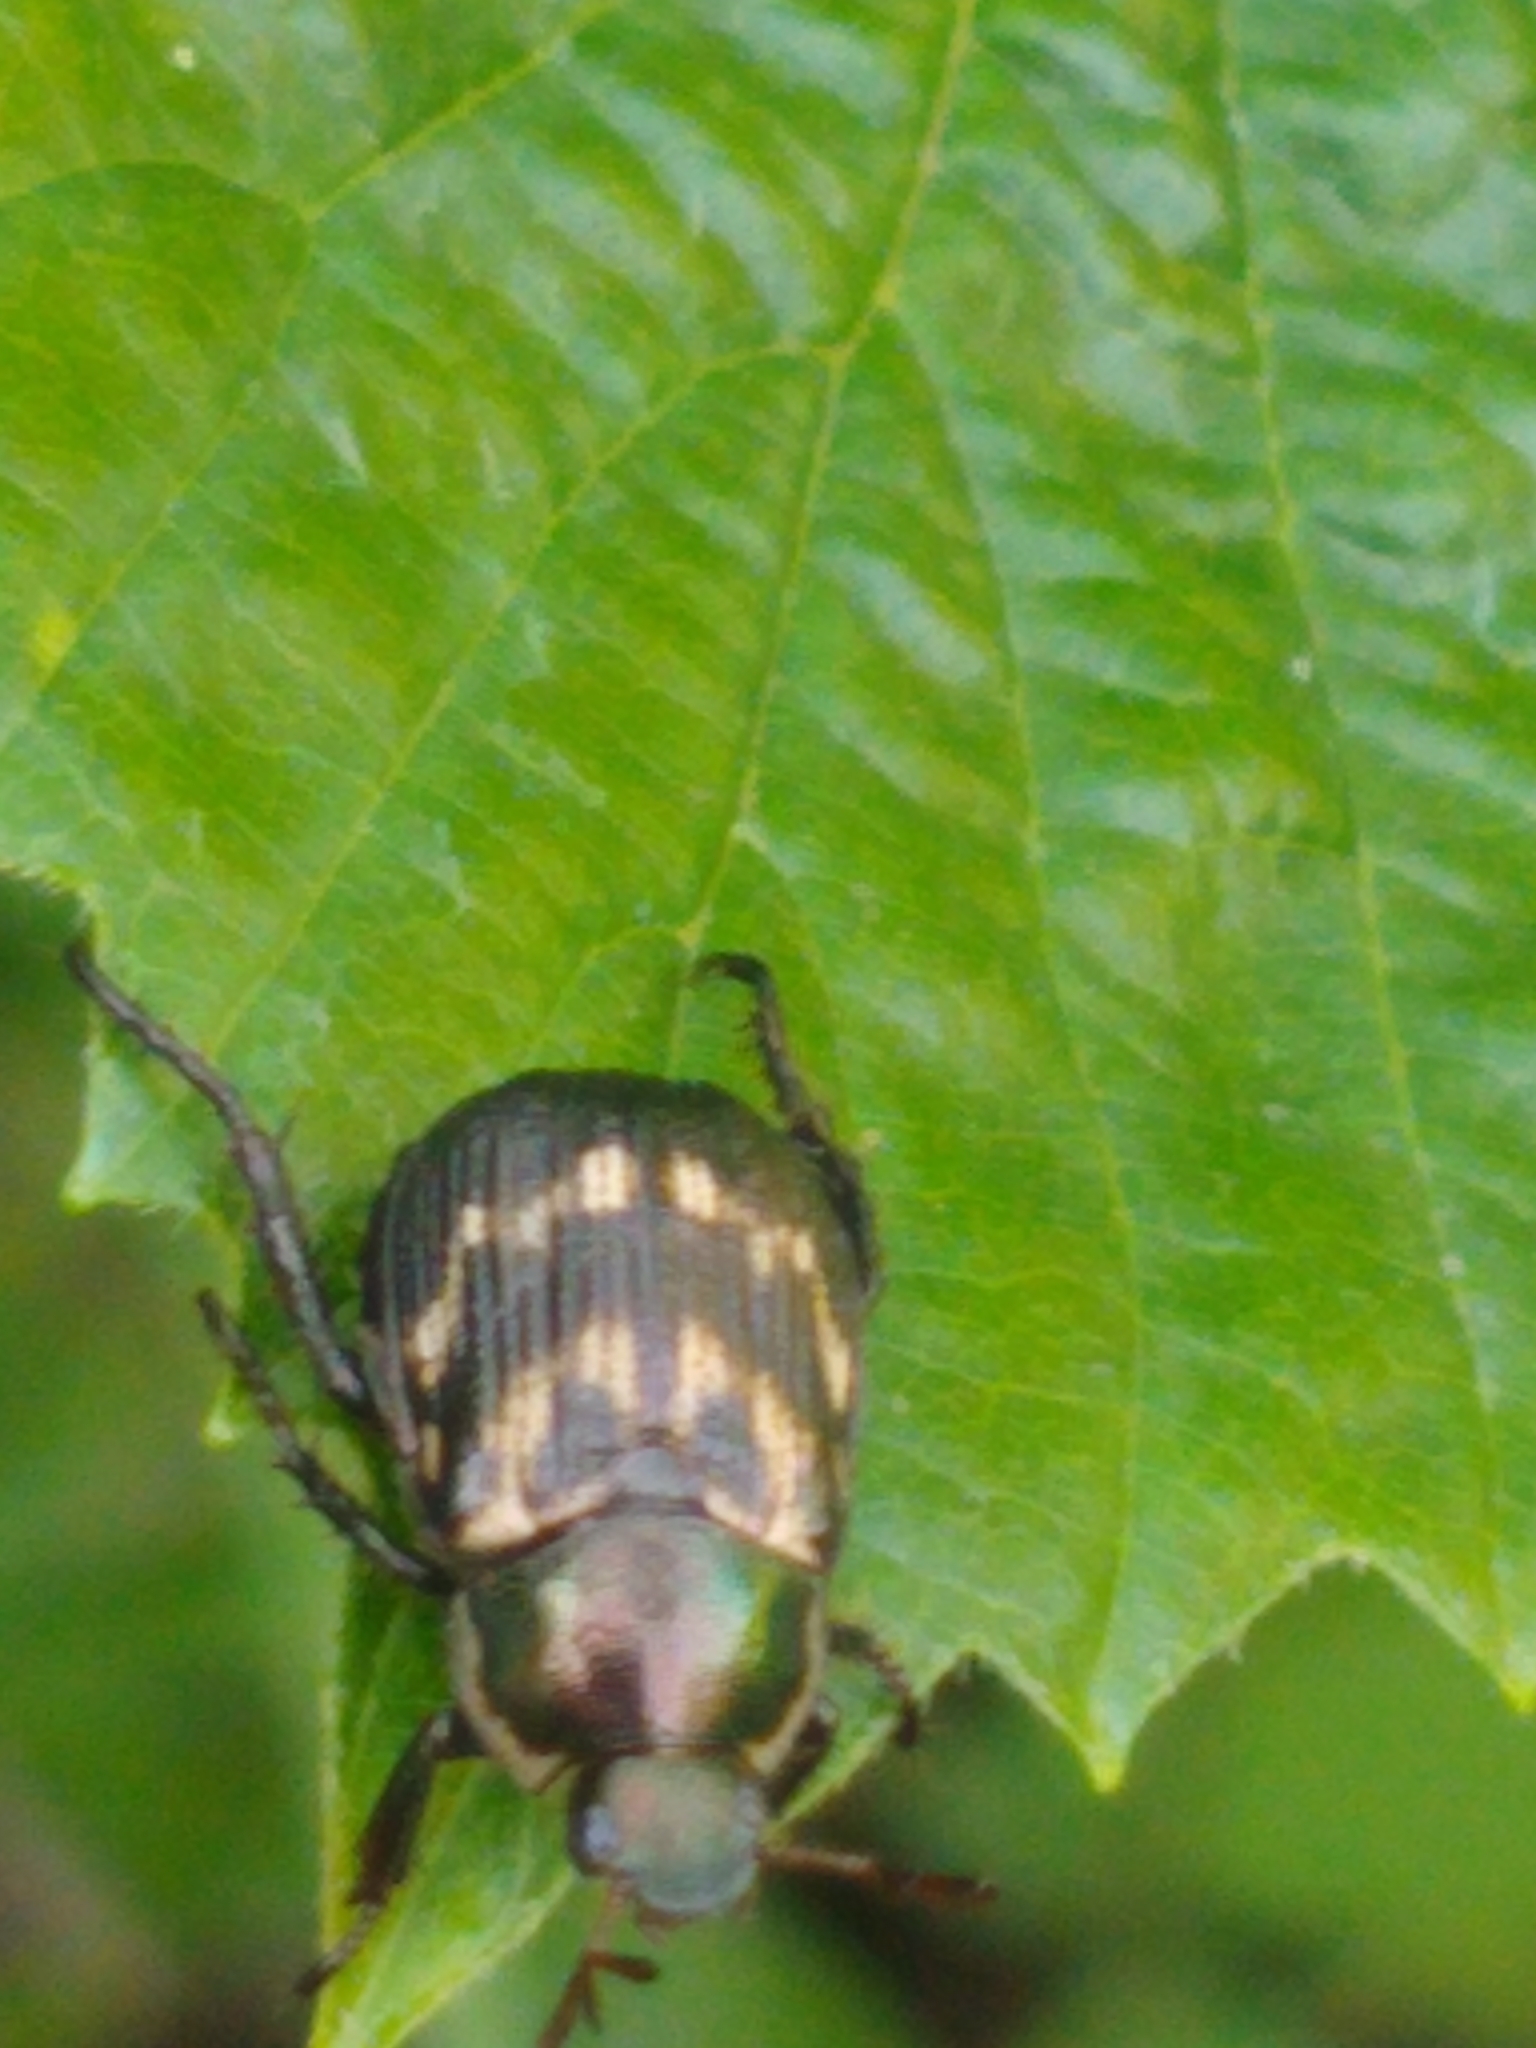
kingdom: Animalia
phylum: Arthropoda
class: Insecta
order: Coleoptera
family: Scarabaeidae
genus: Exomala
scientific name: Exomala orientalis
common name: Oriental beetle
